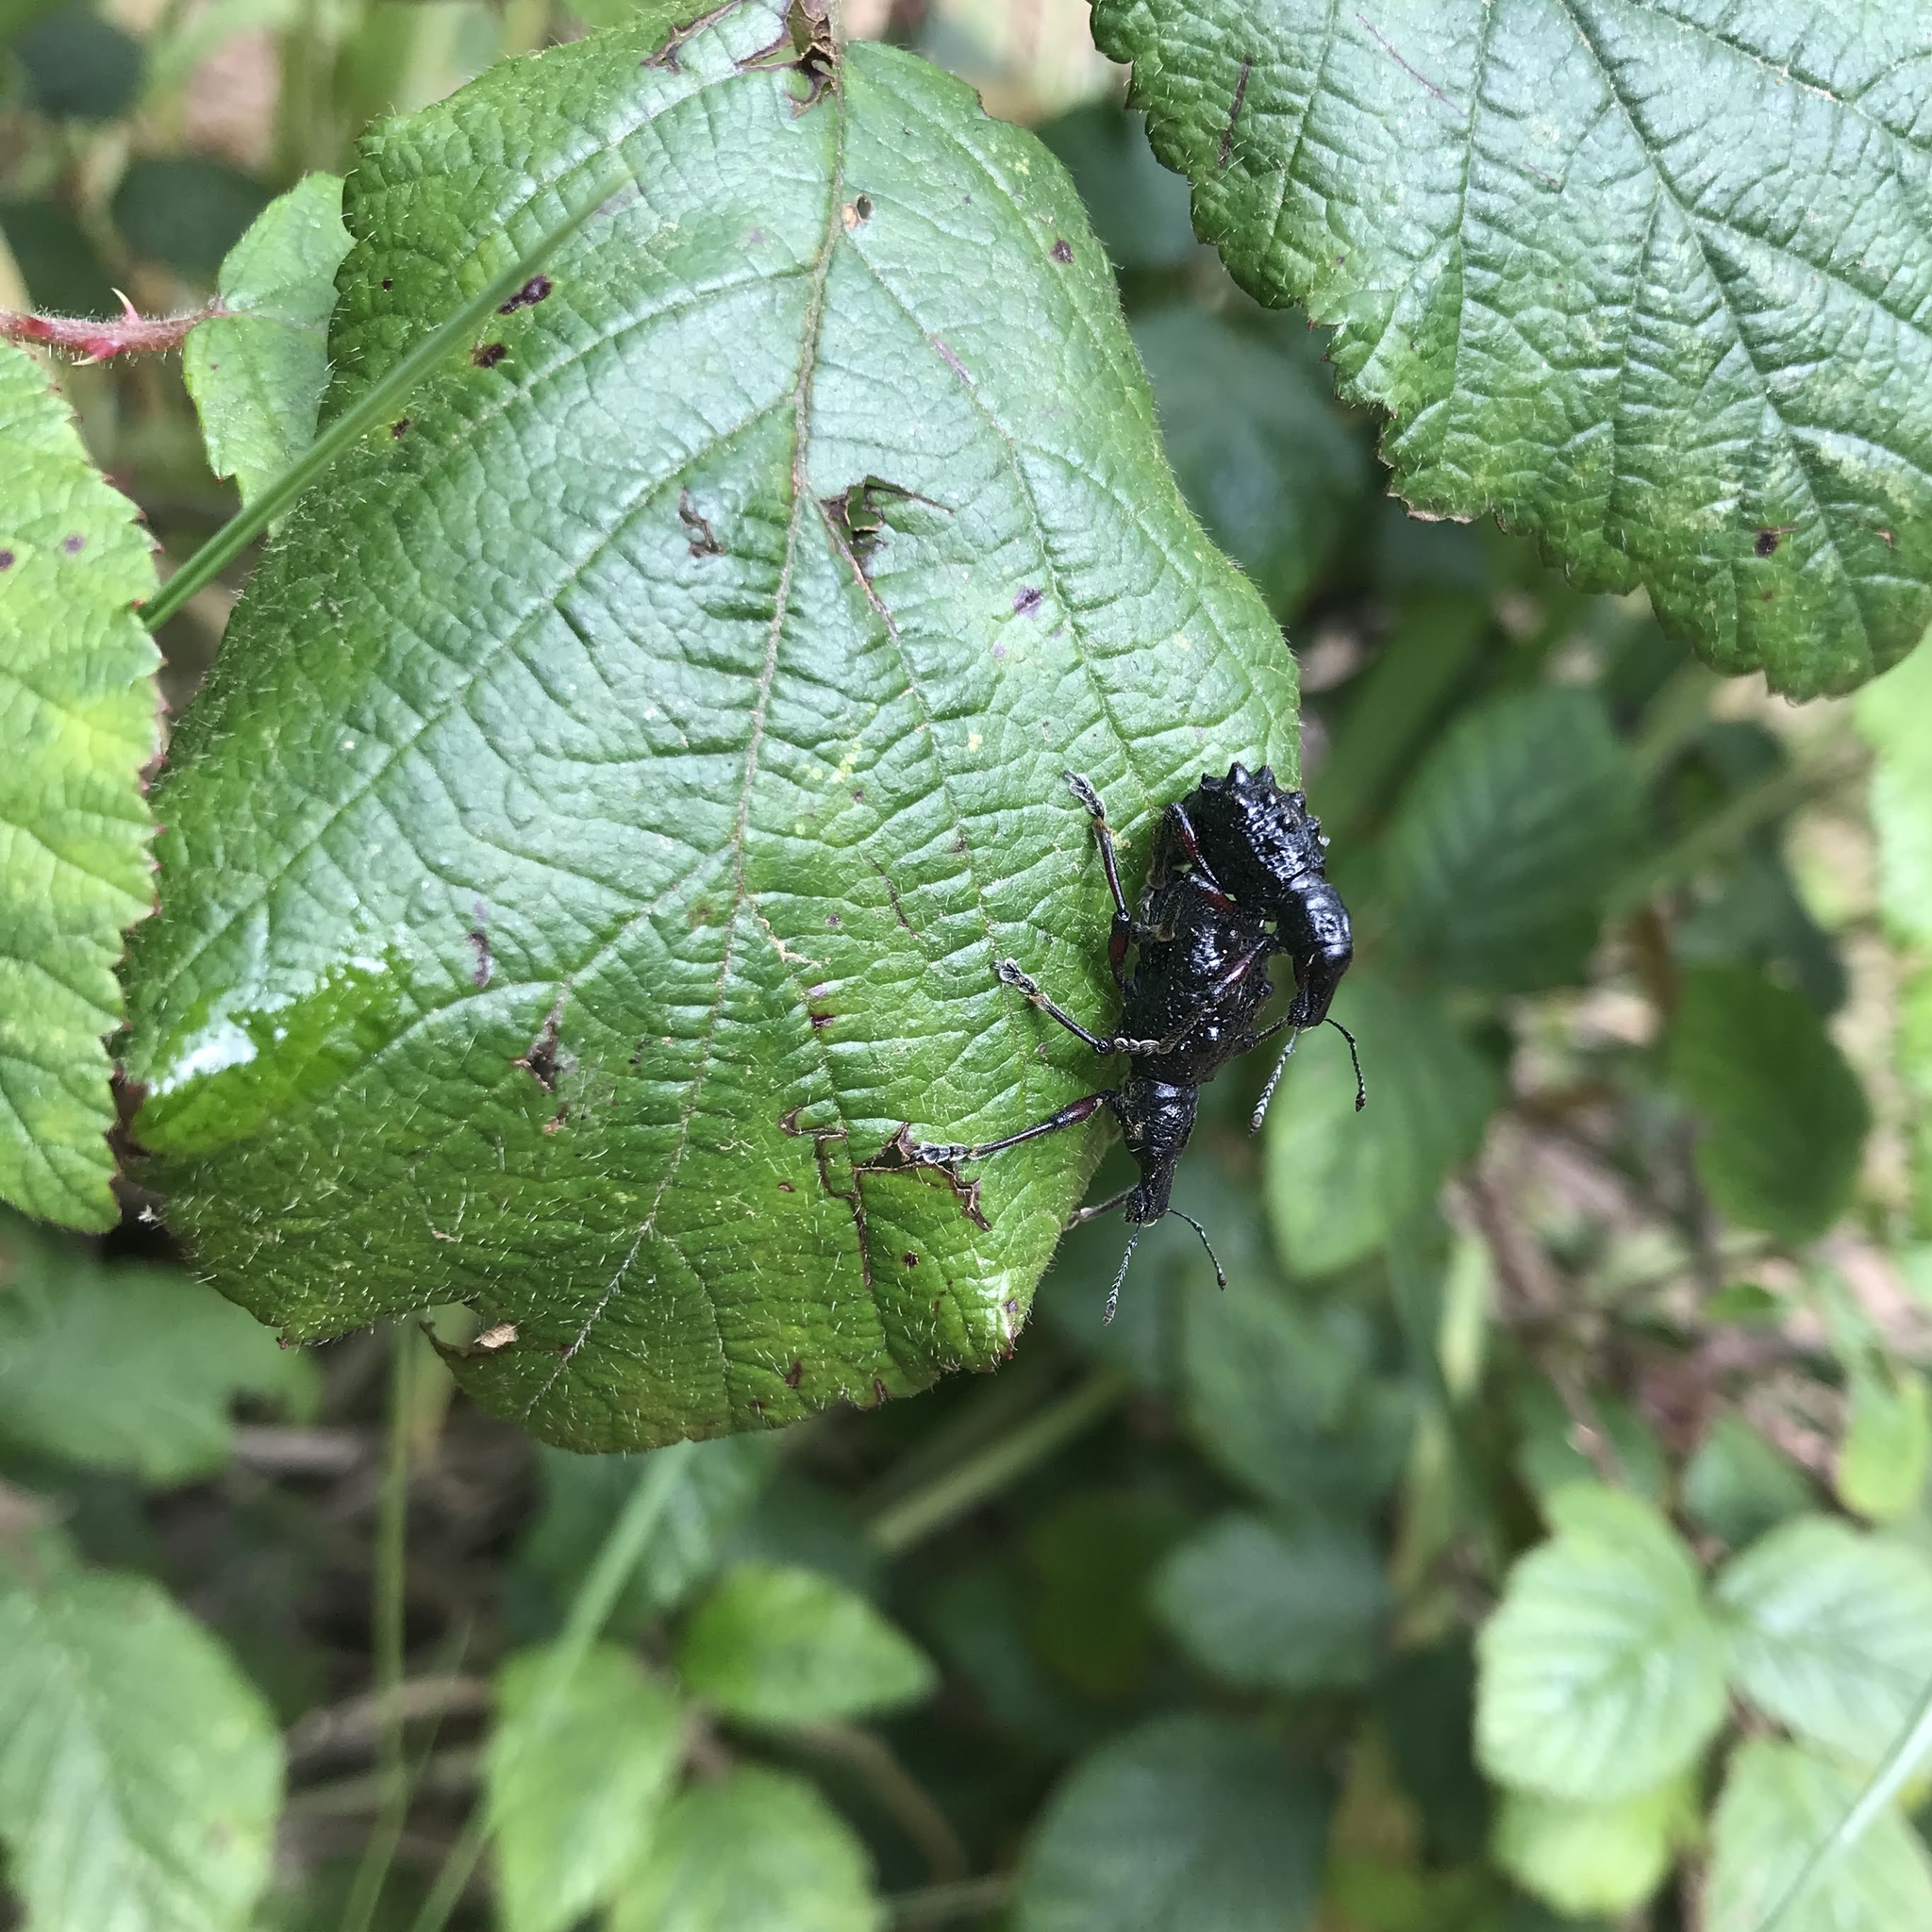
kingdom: Animalia
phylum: Arthropoda
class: Insecta
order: Coleoptera
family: Curculionidae
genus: Megalometides
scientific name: Megalometides cacicus
